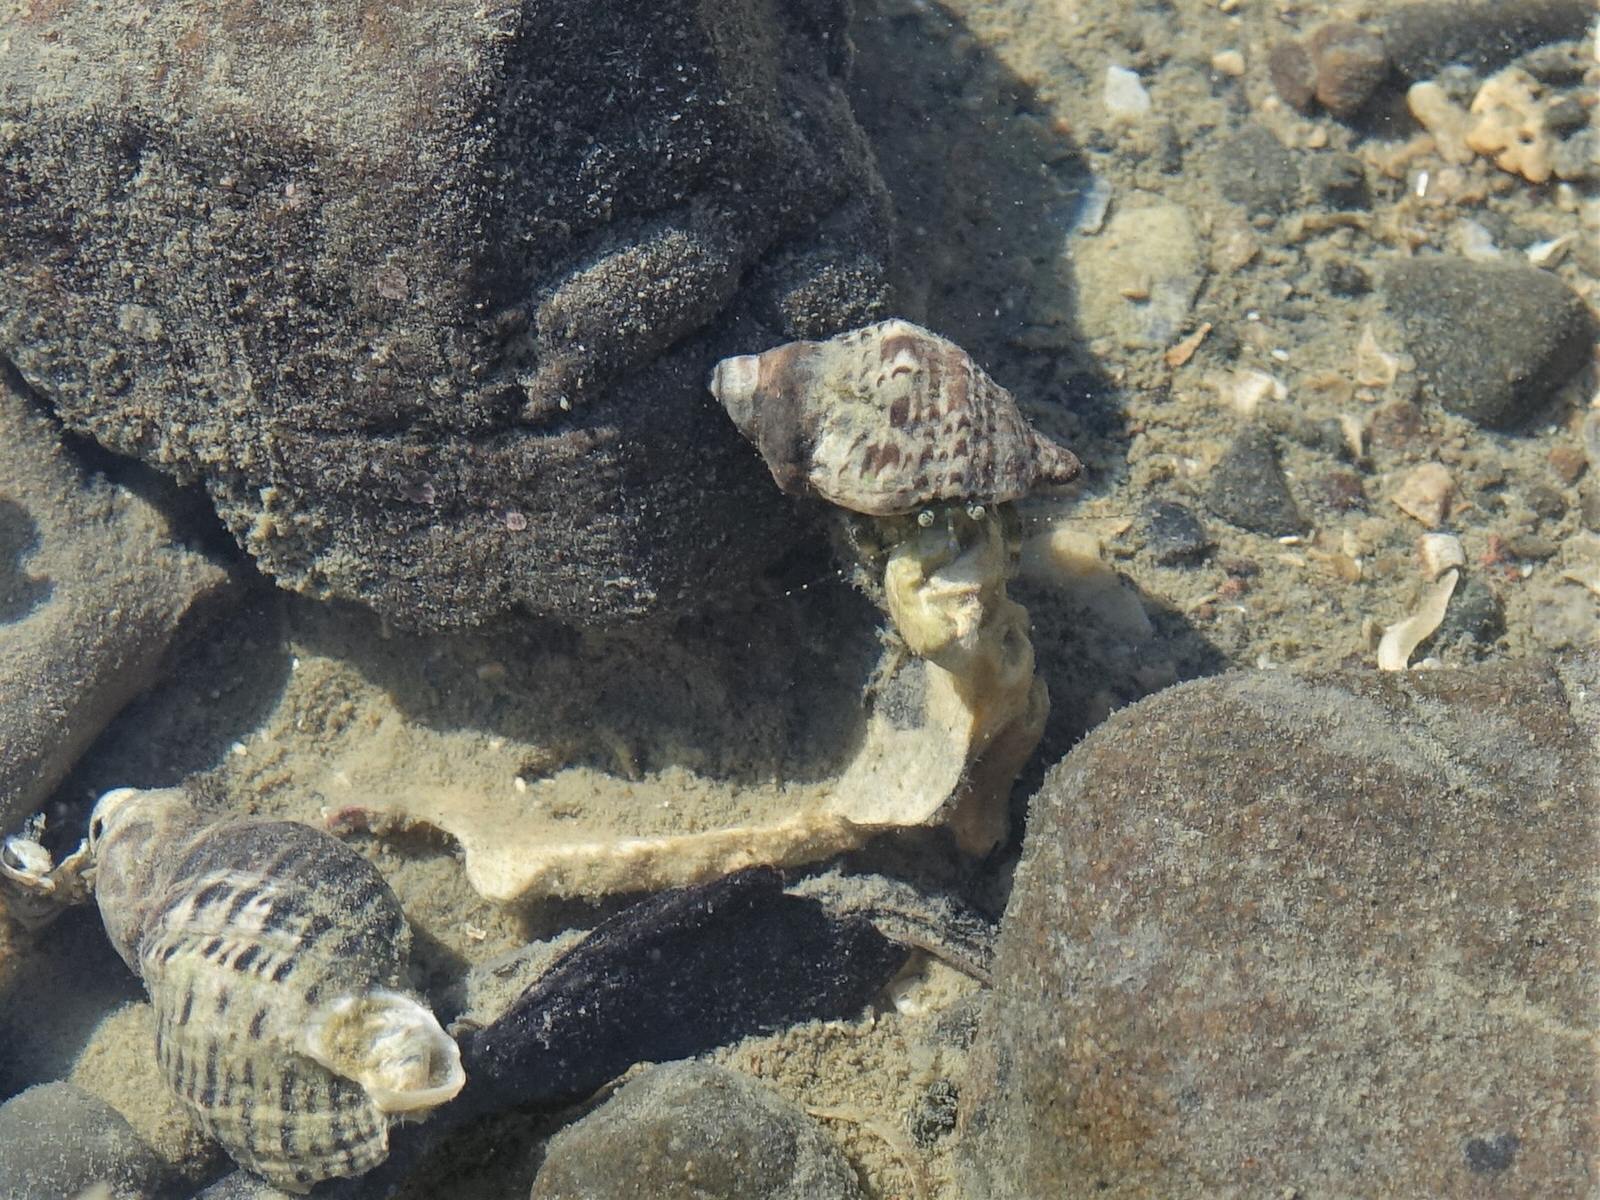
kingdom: Animalia
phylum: Arthropoda
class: Malacostraca
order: Decapoda
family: Paguridae
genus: Pagurus
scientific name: Pagurus novizealandiae
